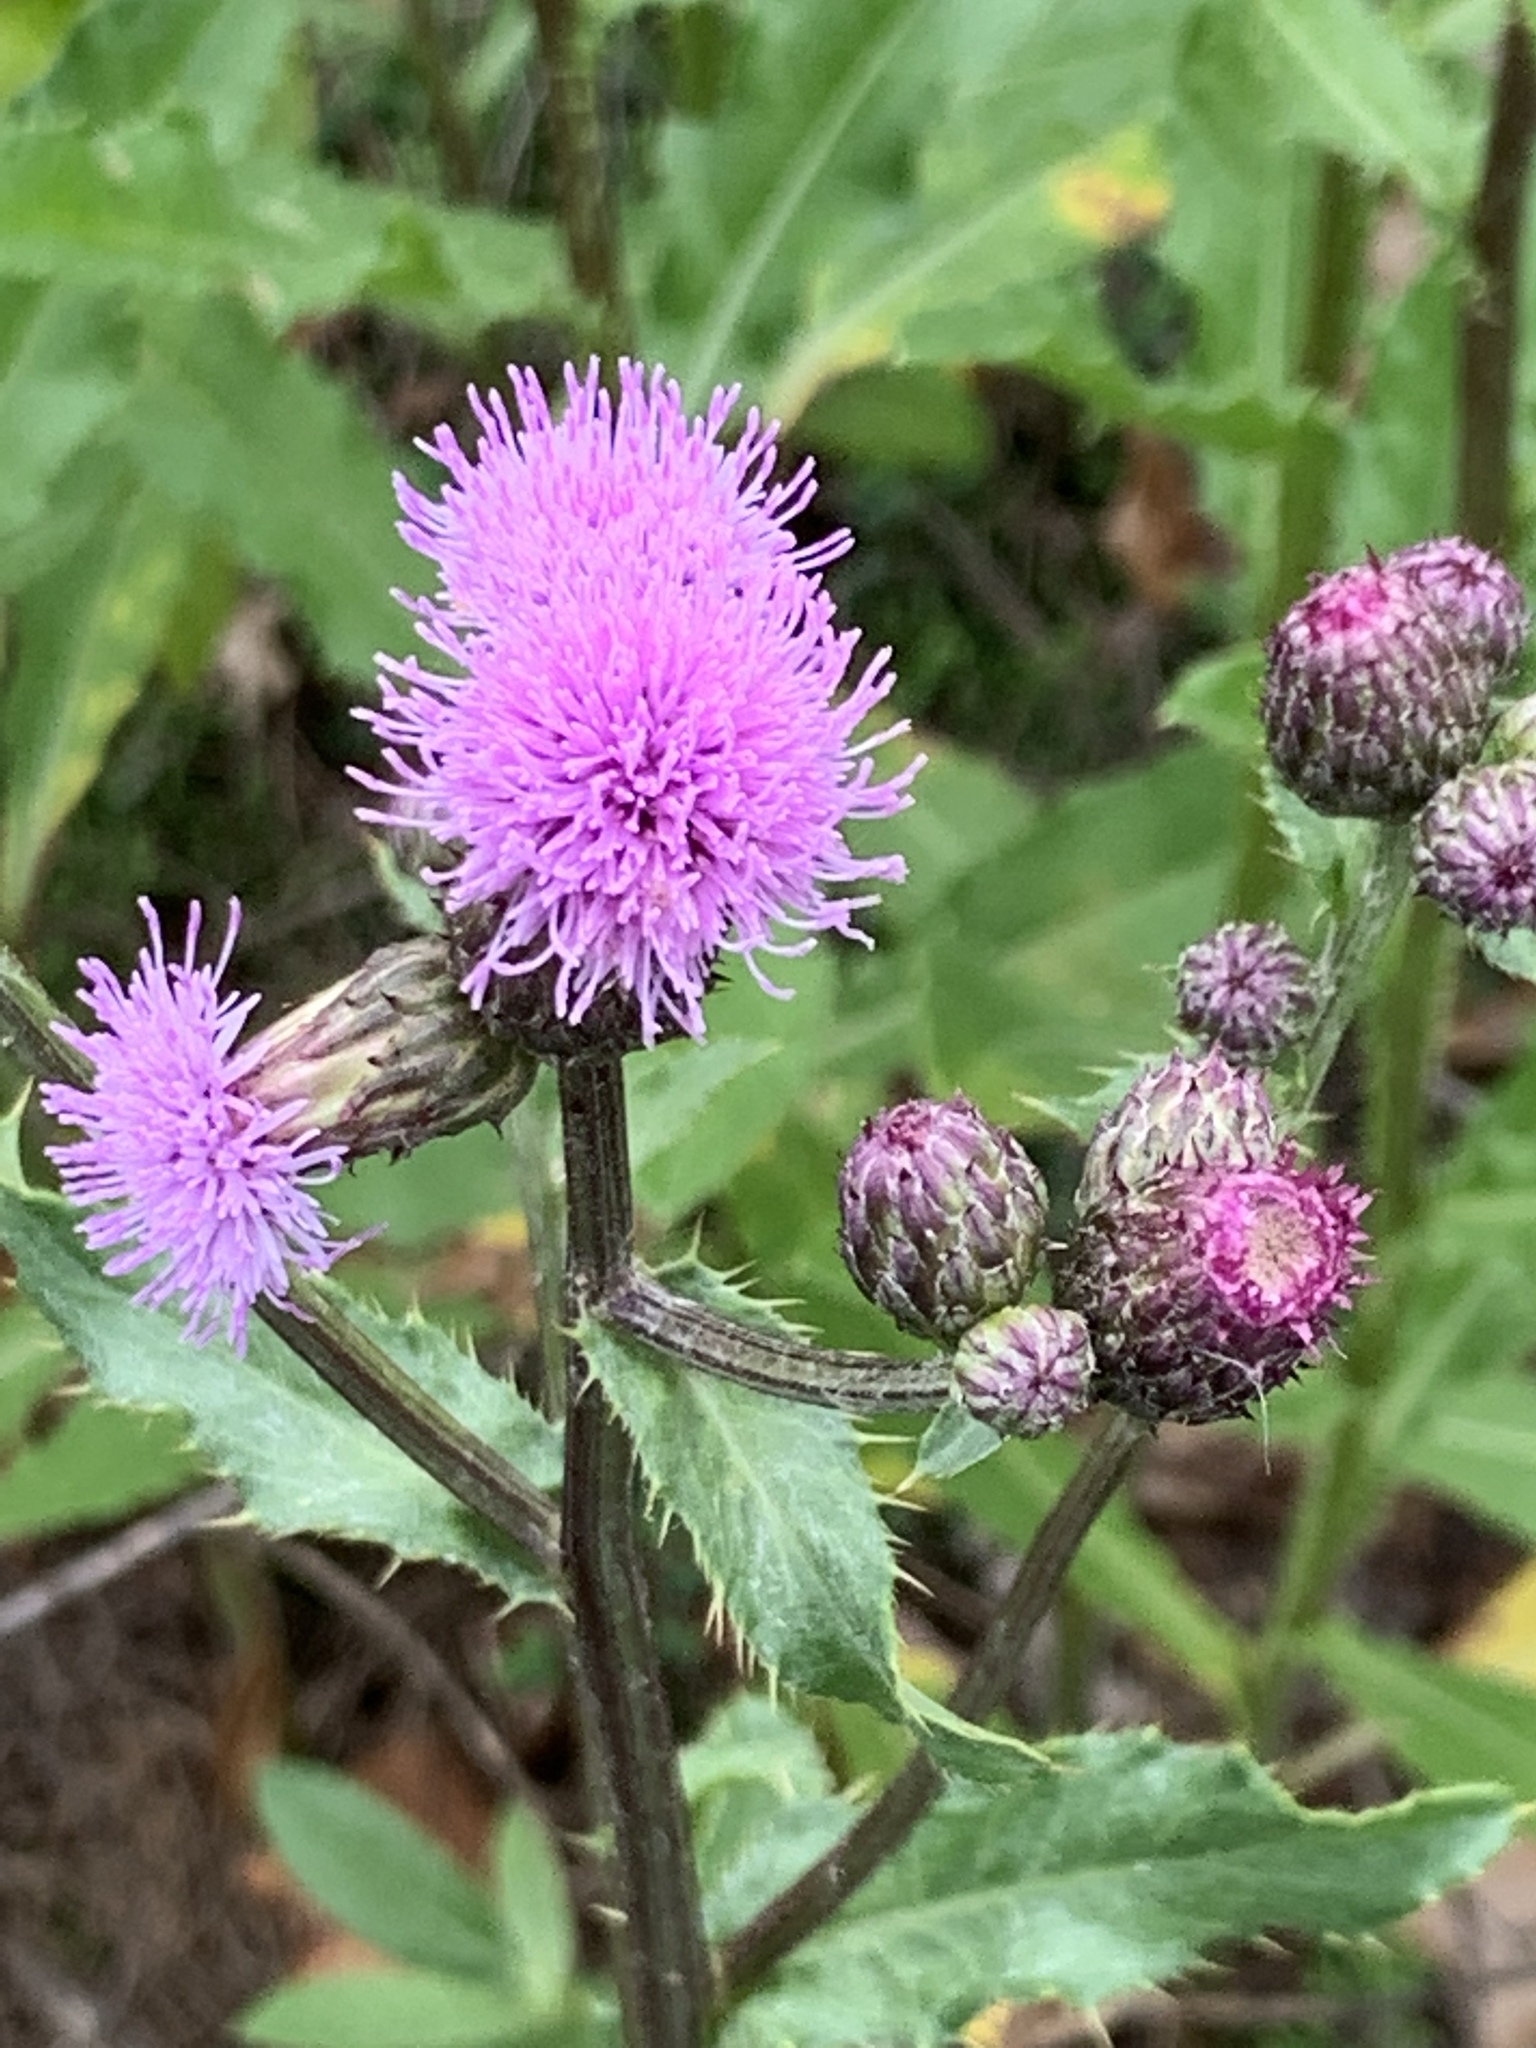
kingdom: Plantae
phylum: Tracheophyta
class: Magnoliopsida
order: Asterales
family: Asteraceae
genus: Cirsium
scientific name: Cirsium arvense
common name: Creeping thistle
